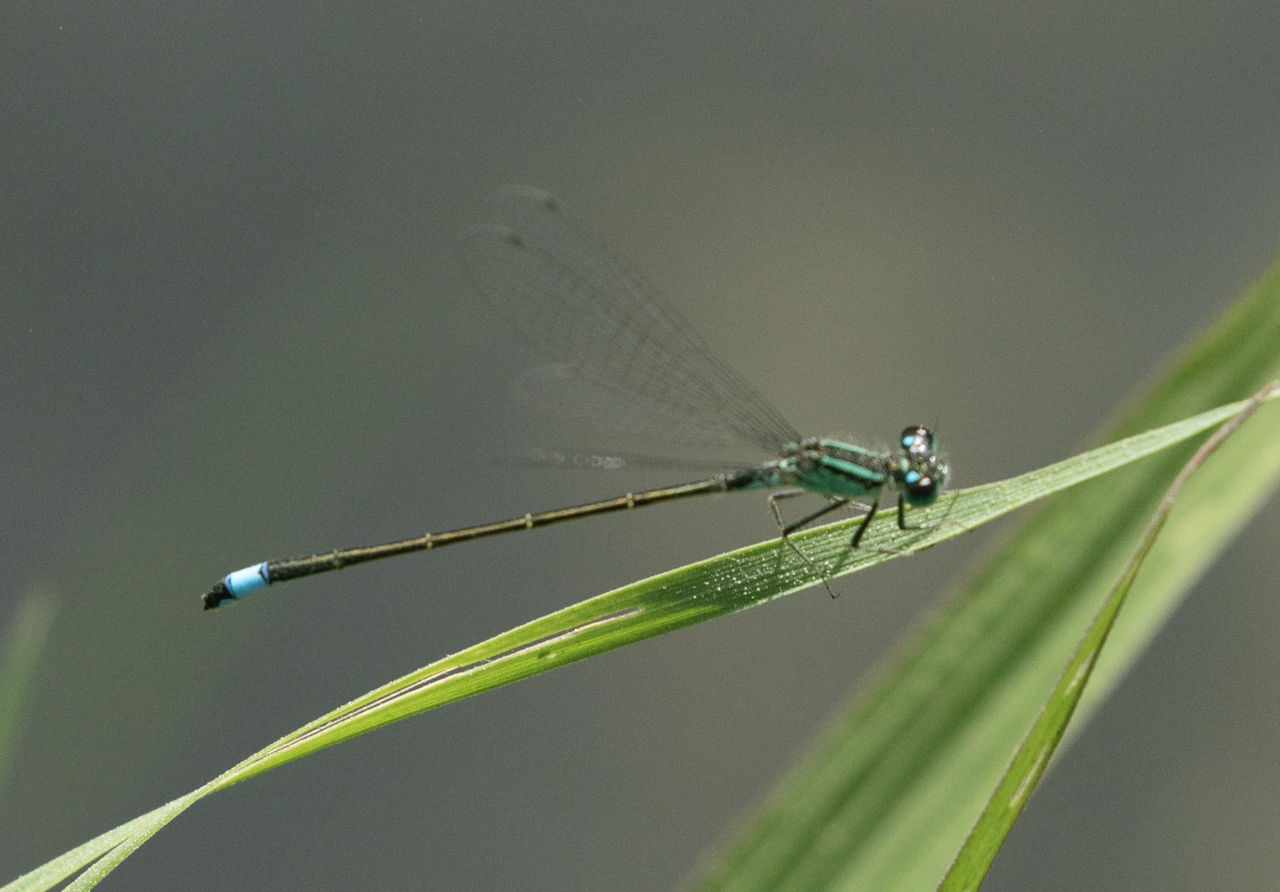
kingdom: Animalia
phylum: Arthropoda
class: Insecta
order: Odonata
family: Coenagrionidae
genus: Ischnura
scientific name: Ischnura elegans
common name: Blue-tailed damselfly
